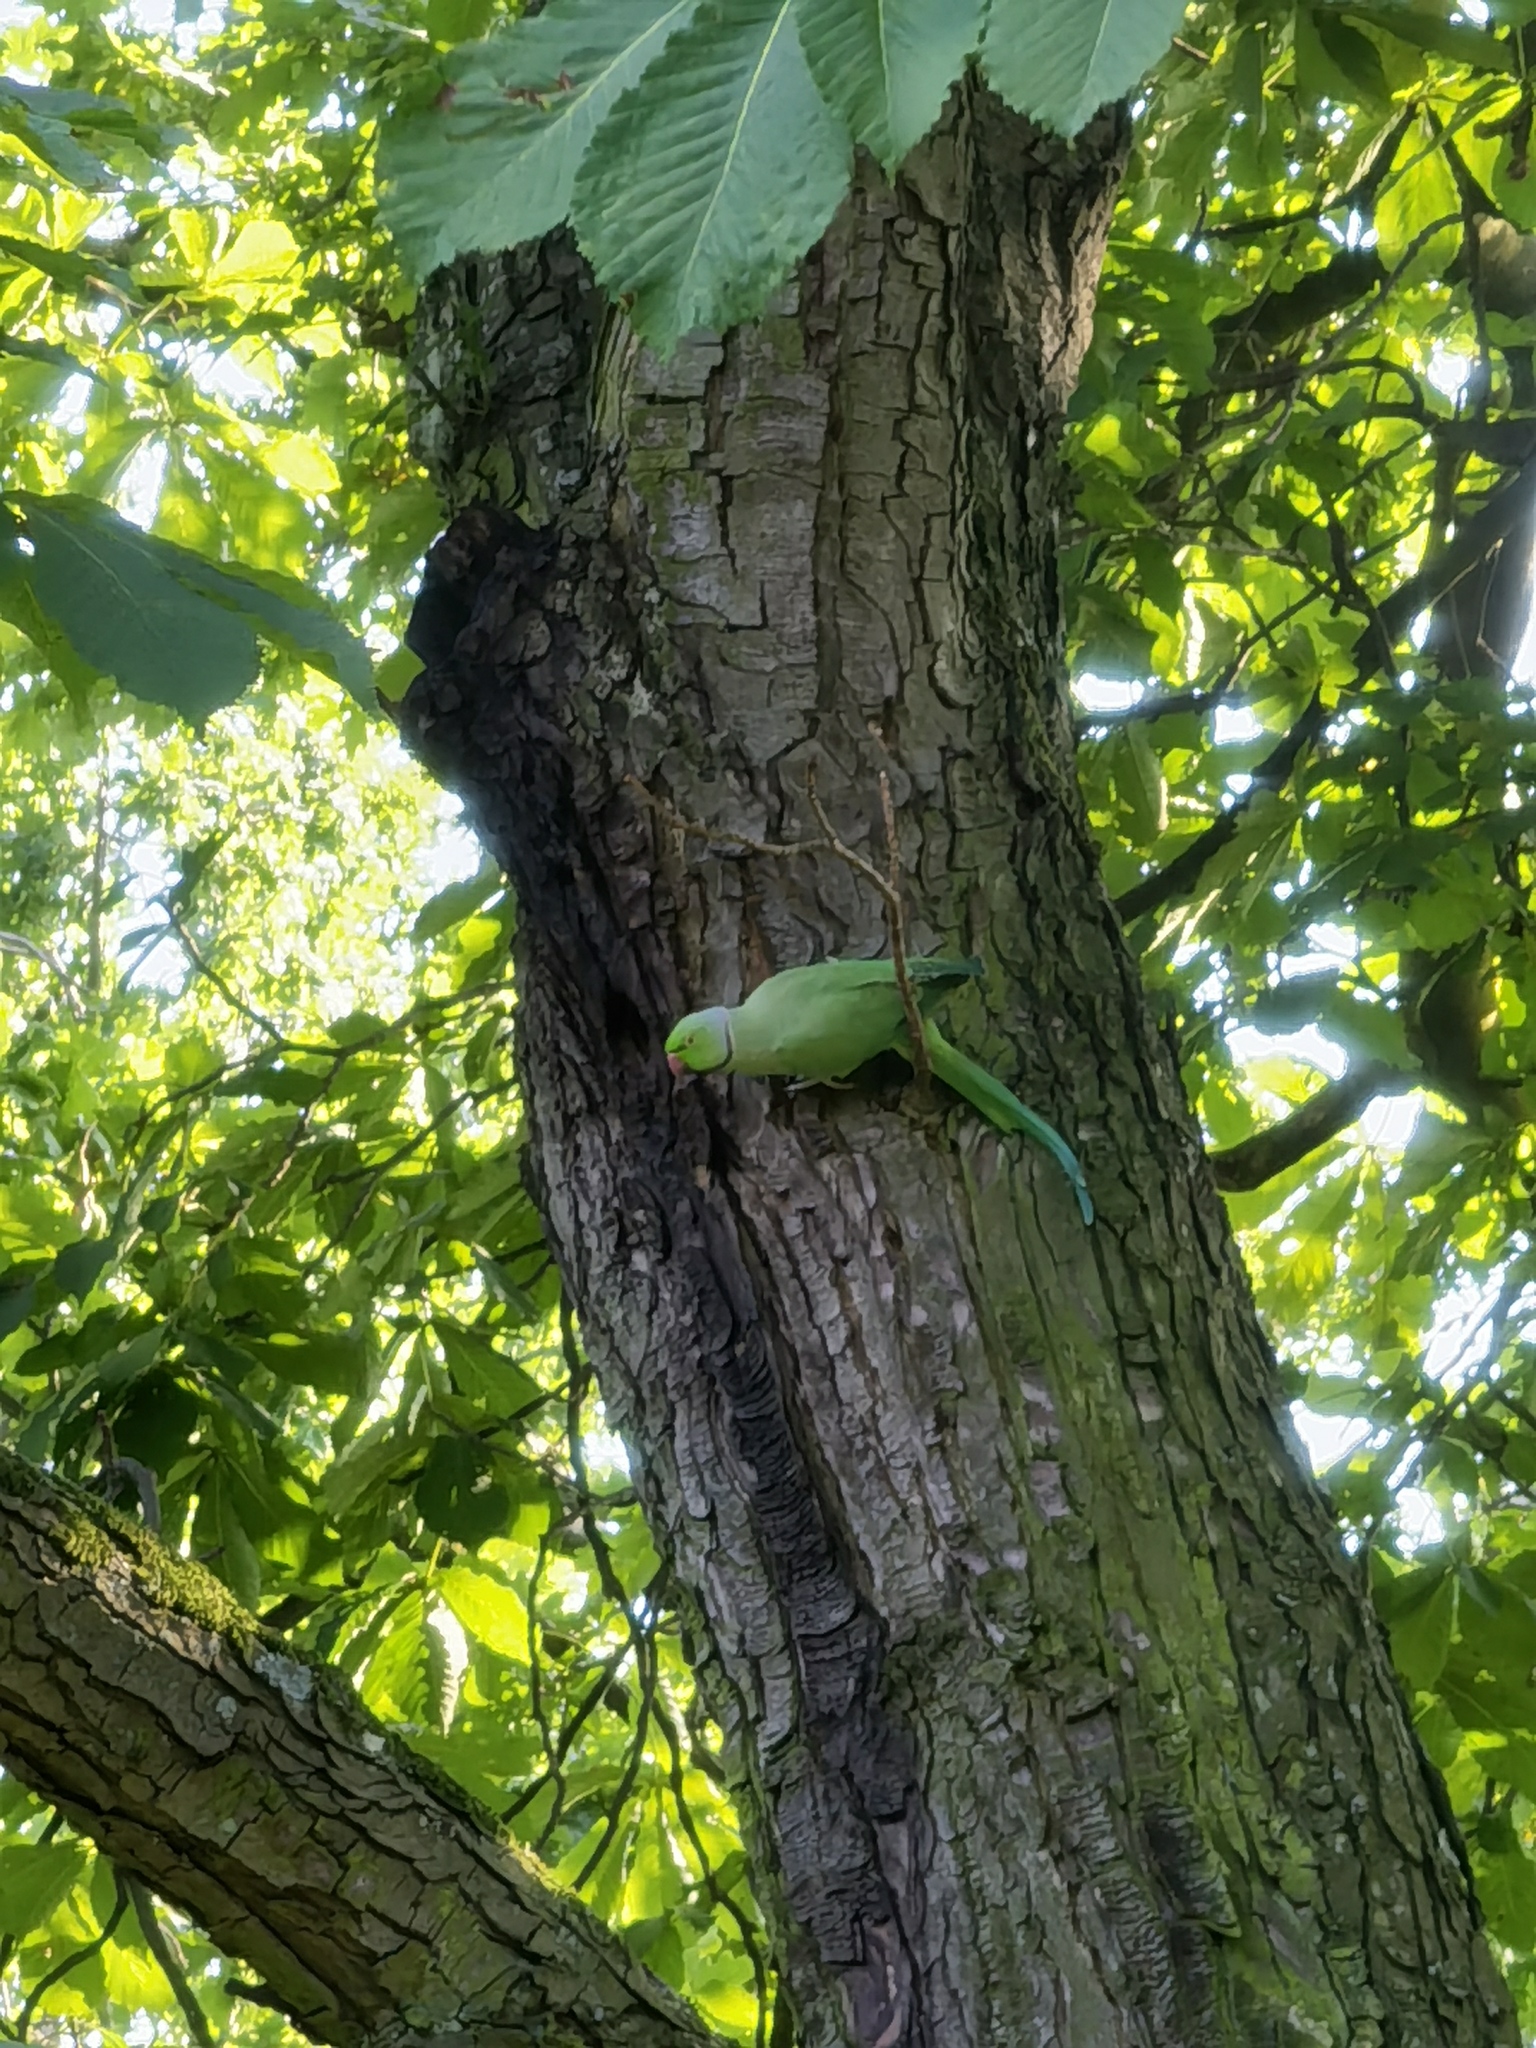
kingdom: Animalia
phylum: Chordata
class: Aves
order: Psittaciformes
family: Psittacidae
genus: Psittacula
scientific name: Psittacula krameri
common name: Rose-ringed parakeet
